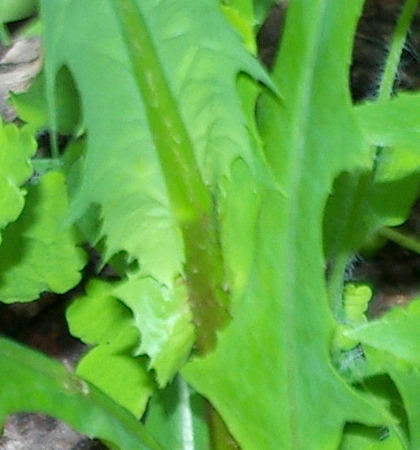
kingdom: Plantae
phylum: Tracheophyta
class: Magnoliopsida
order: Asterales
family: Asteraceae
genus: Lactuca
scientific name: Lactuca serriola
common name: Prickly lettuce
